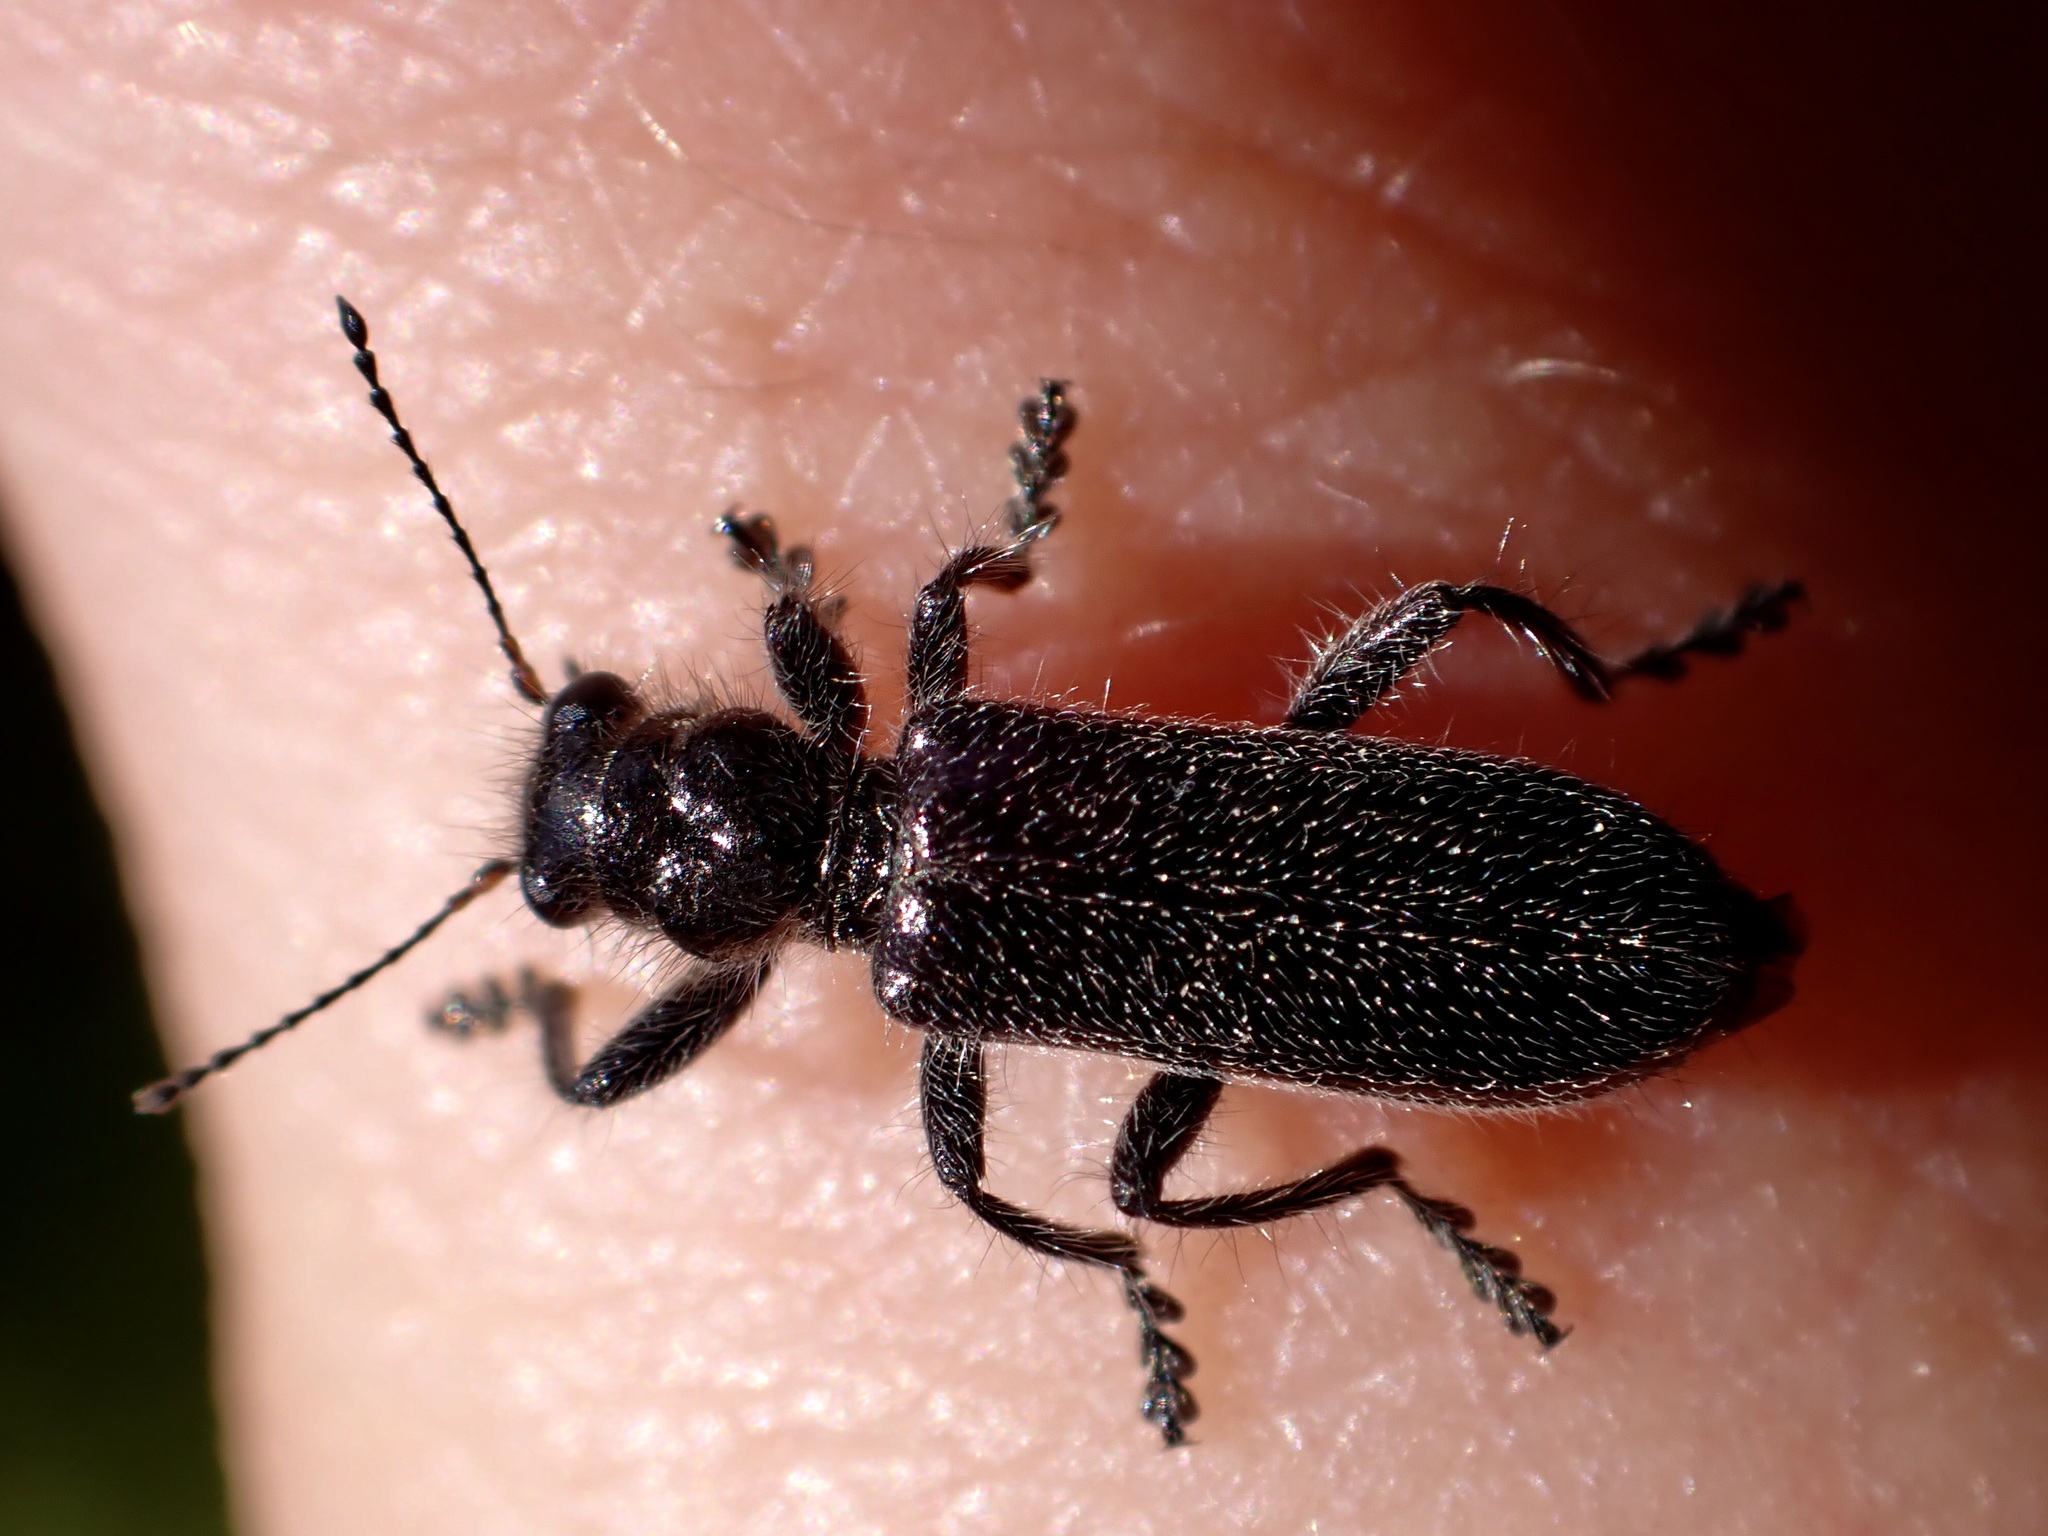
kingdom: Animalia
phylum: Arthropoda
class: Insecta
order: Coleoptera
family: Cleridae
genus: Balcus
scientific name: Balcus
